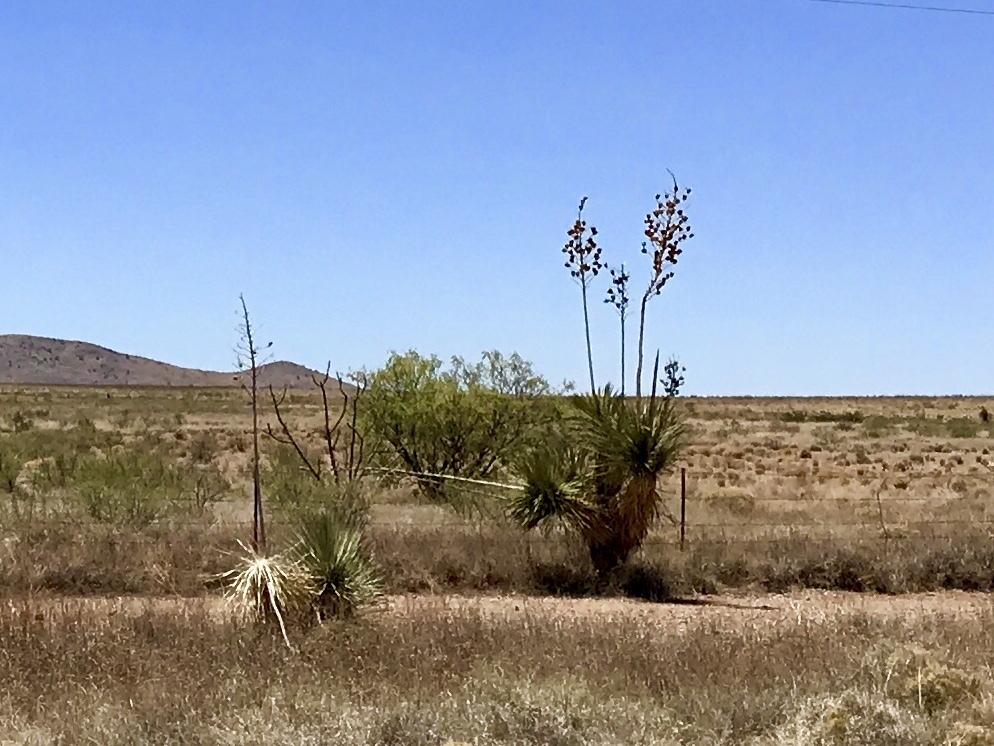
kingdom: Plantae
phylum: Tracheophyta
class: Liliopsida
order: Asparagales
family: Asparagaceae
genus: Yucca
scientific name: Yucca elata
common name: Palmella
